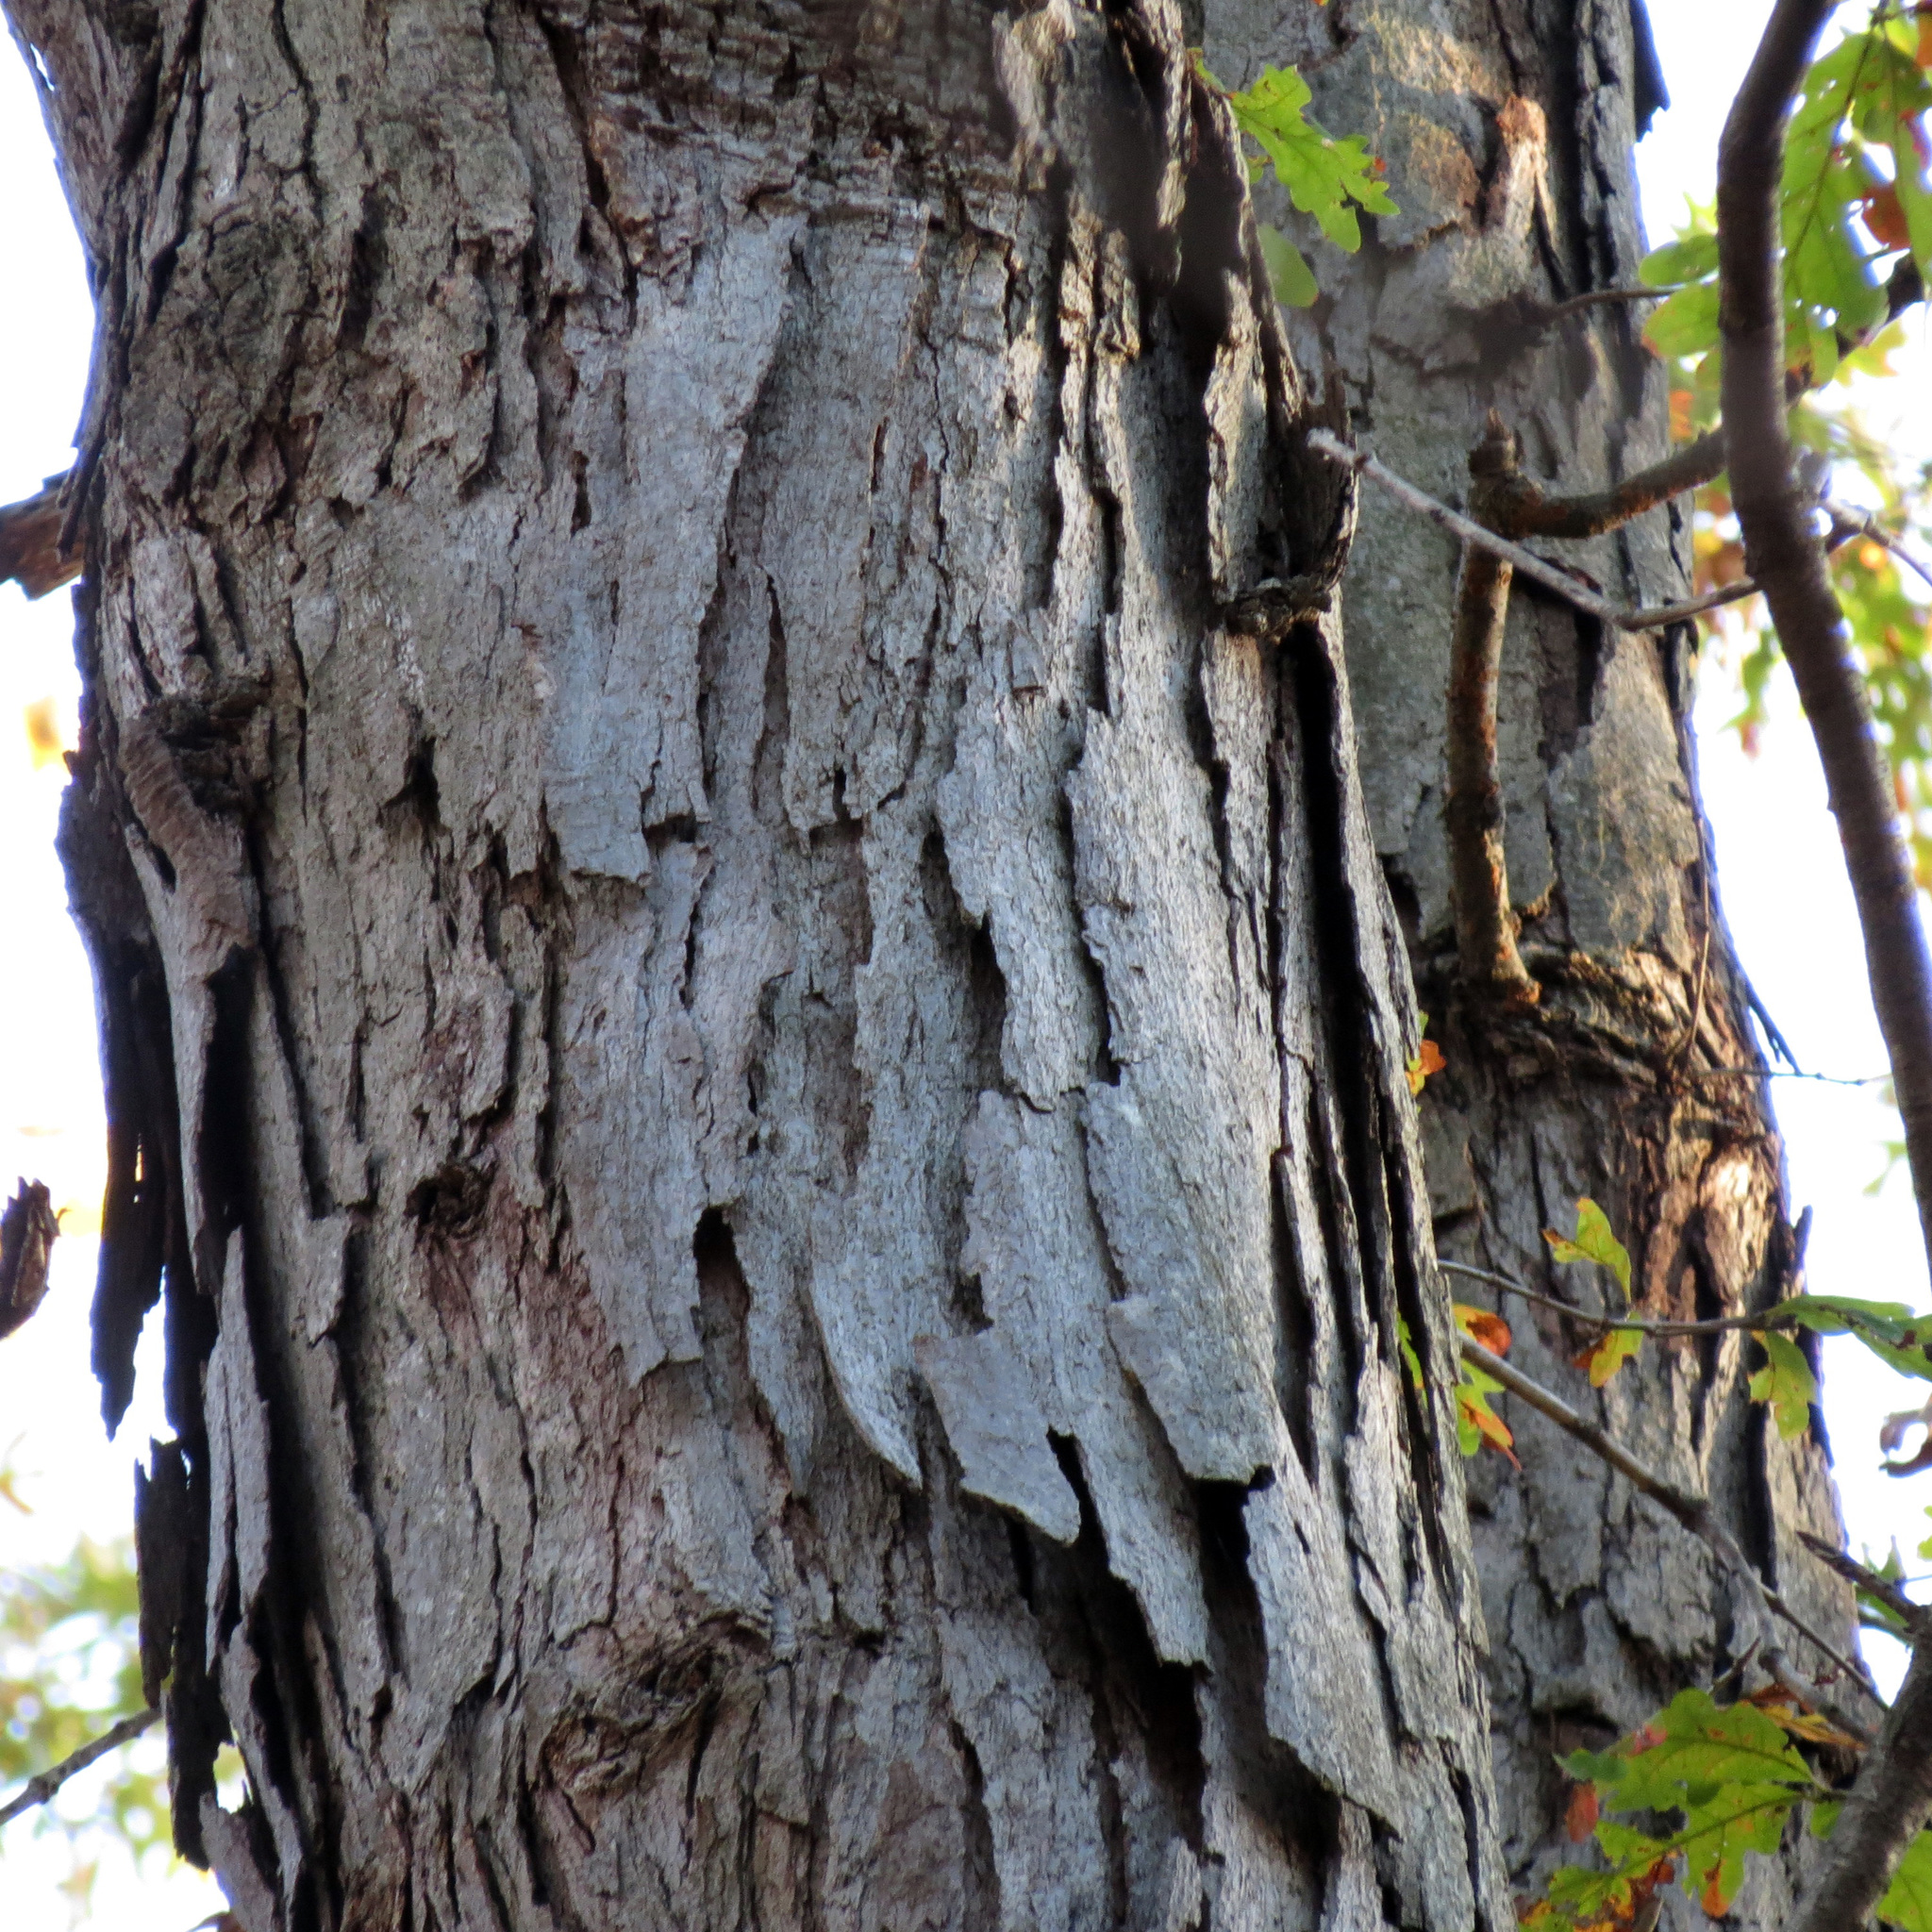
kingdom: Plantae
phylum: Tracheophyta
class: Magnoliopsida
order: Fagales
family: Fagaceae
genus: Quercus
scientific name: Quercus alba
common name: White oak
